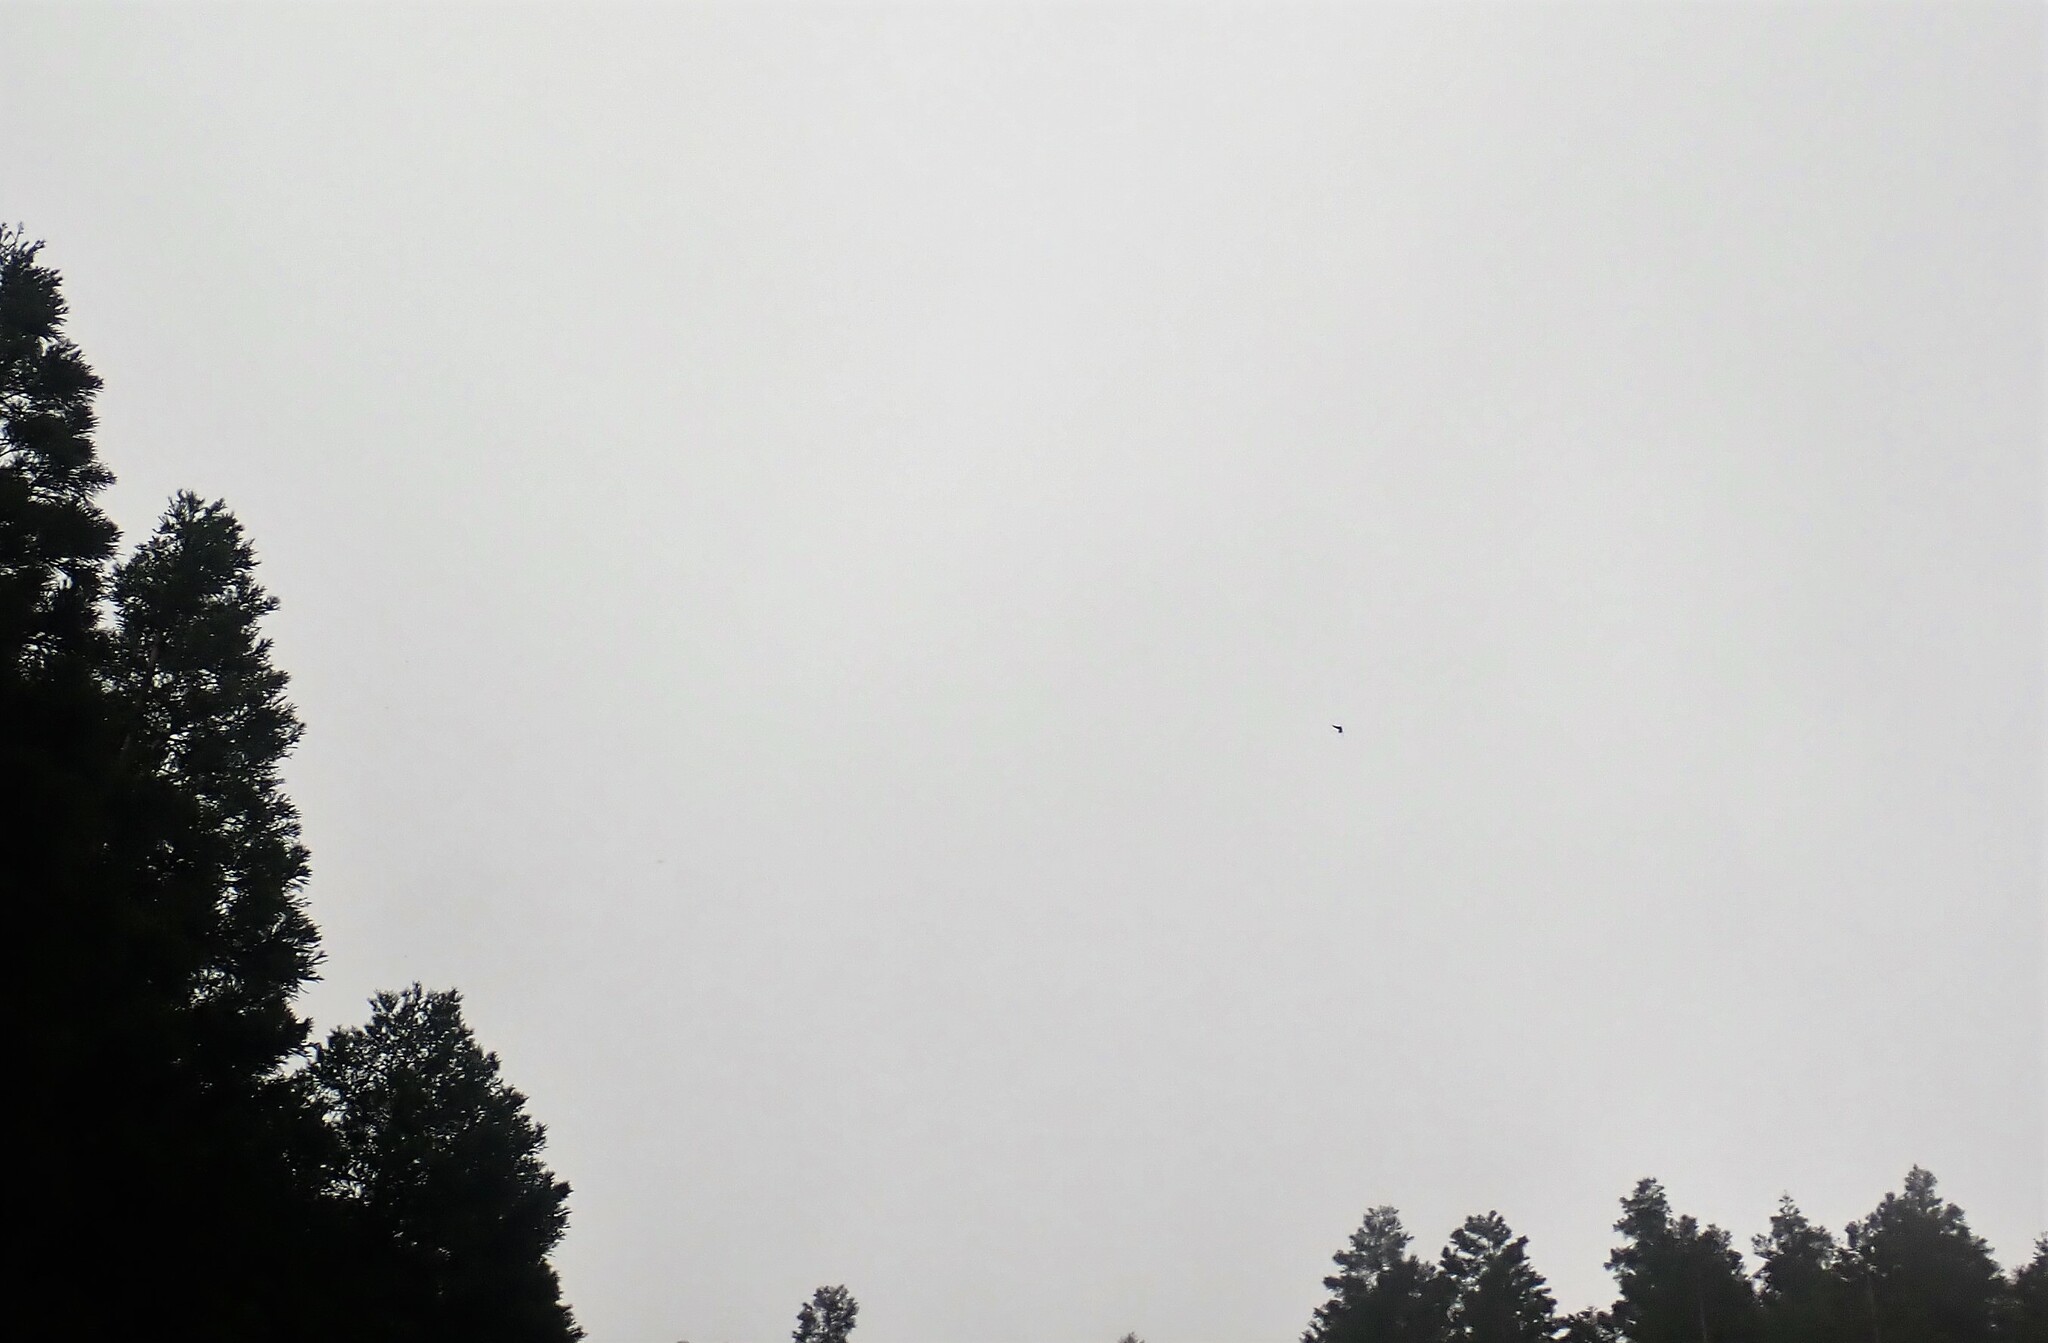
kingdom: Animalia
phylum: Chordata
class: Mammalia
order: Chiroptera
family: Vespertilionidae
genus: Nyctalus
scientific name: Nyctalus azoreum
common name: Azores noctule
